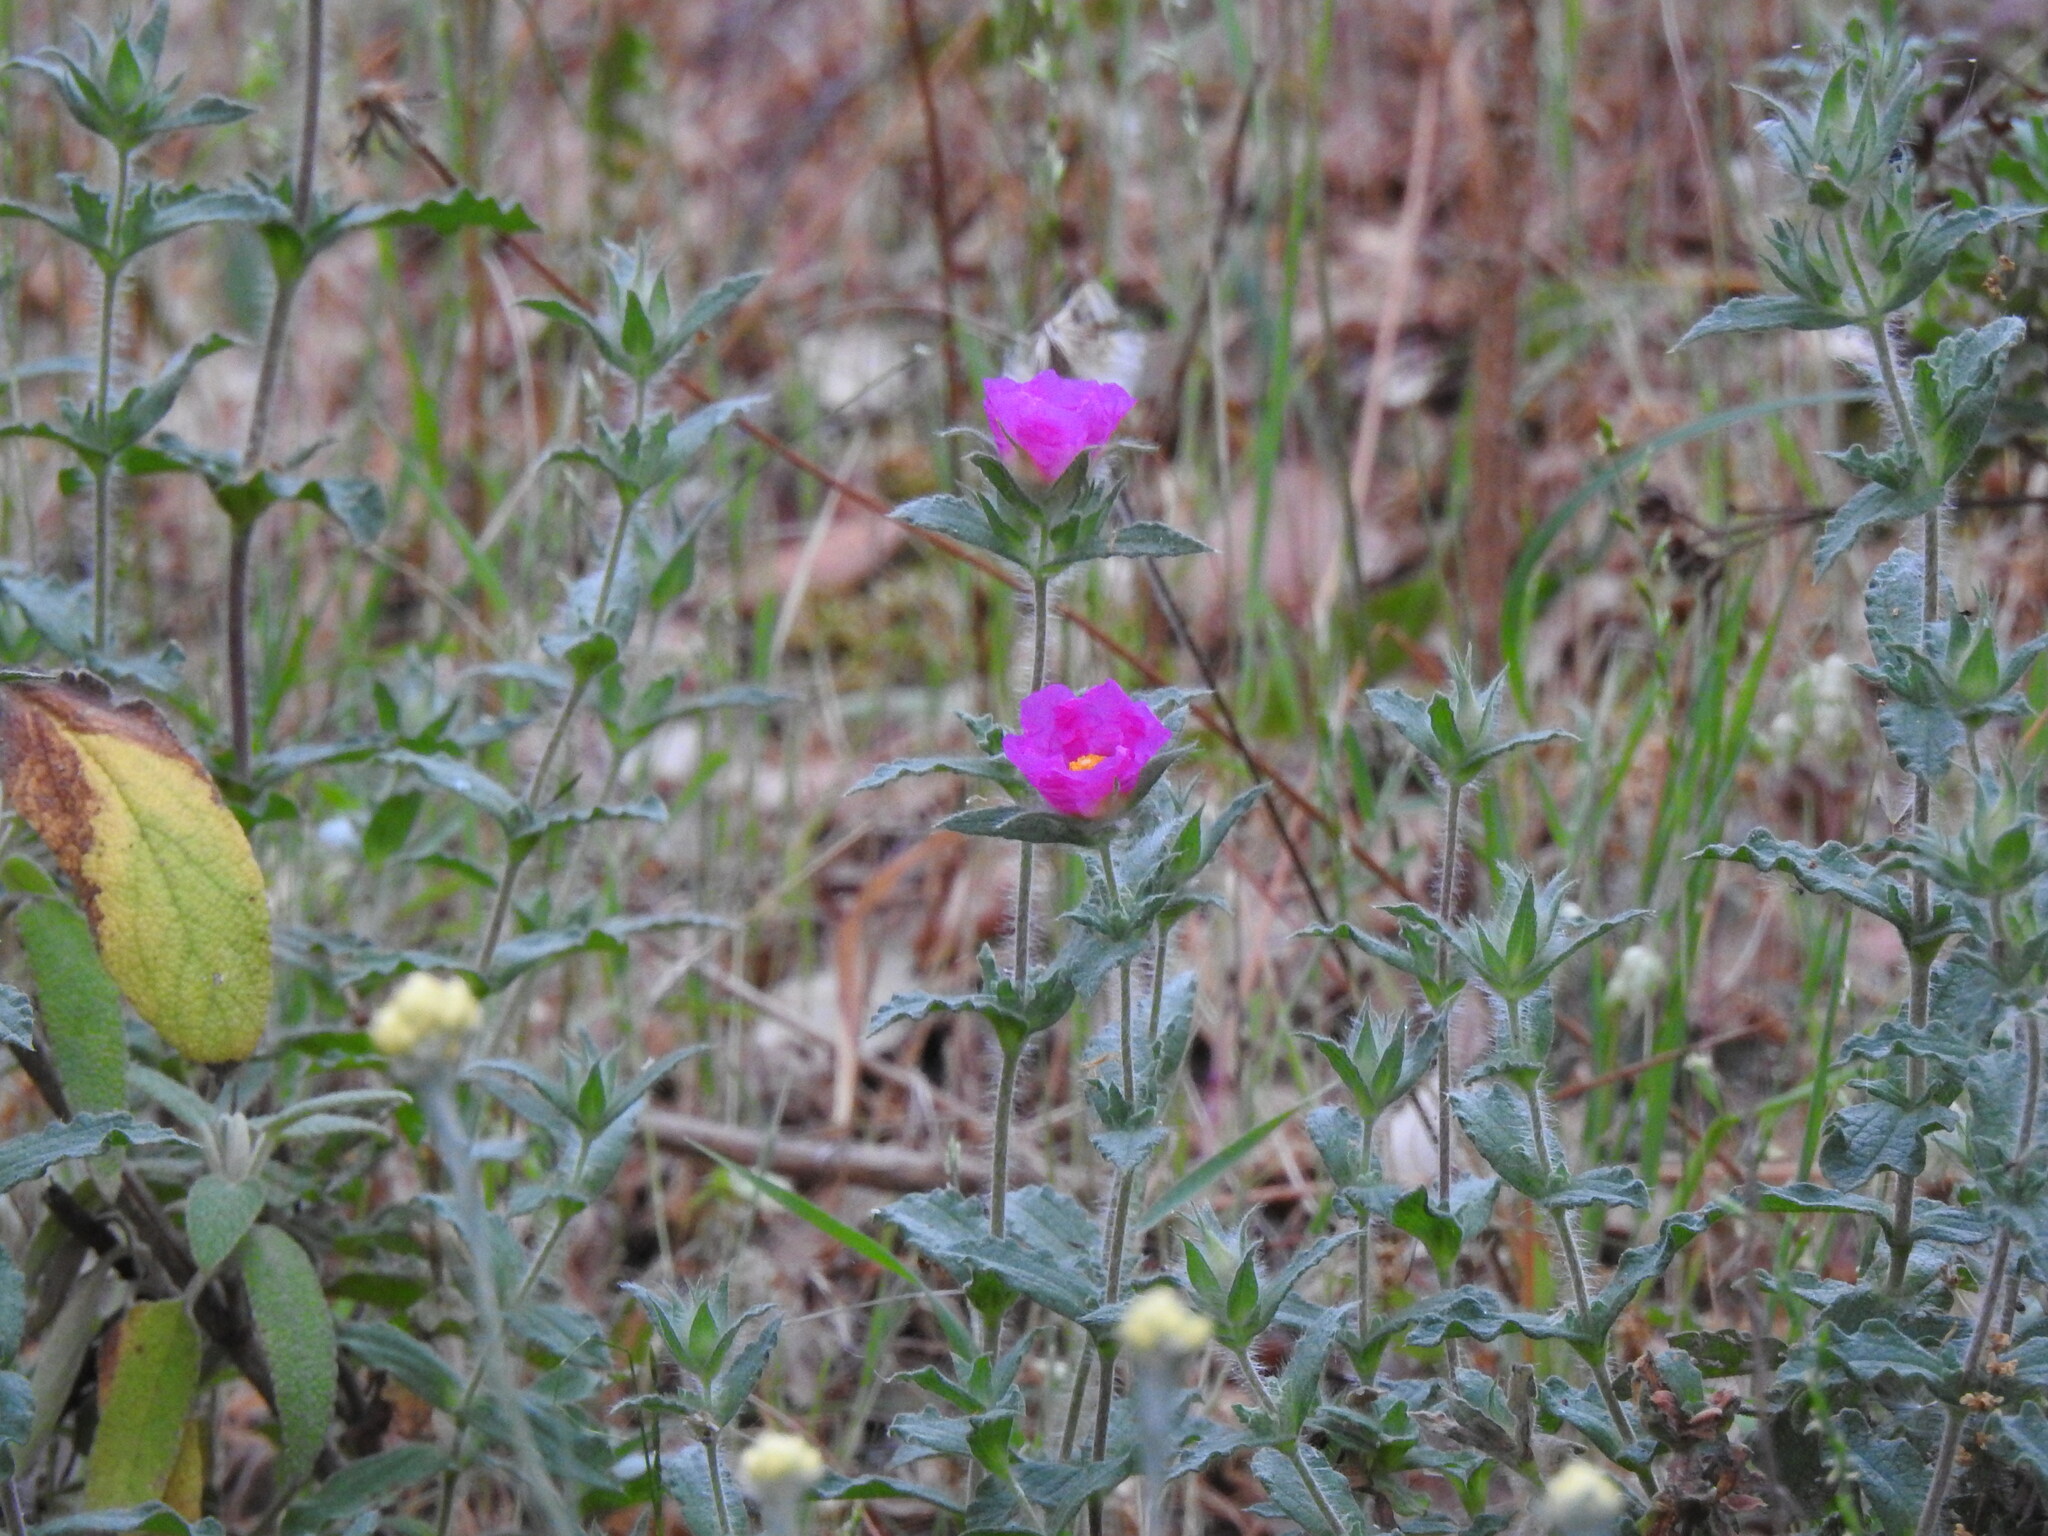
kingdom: Plantae
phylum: Tracheophyta
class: Magnoliopsida
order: Malvales
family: Cistaceae
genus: Cistus
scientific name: Cistus crispus
